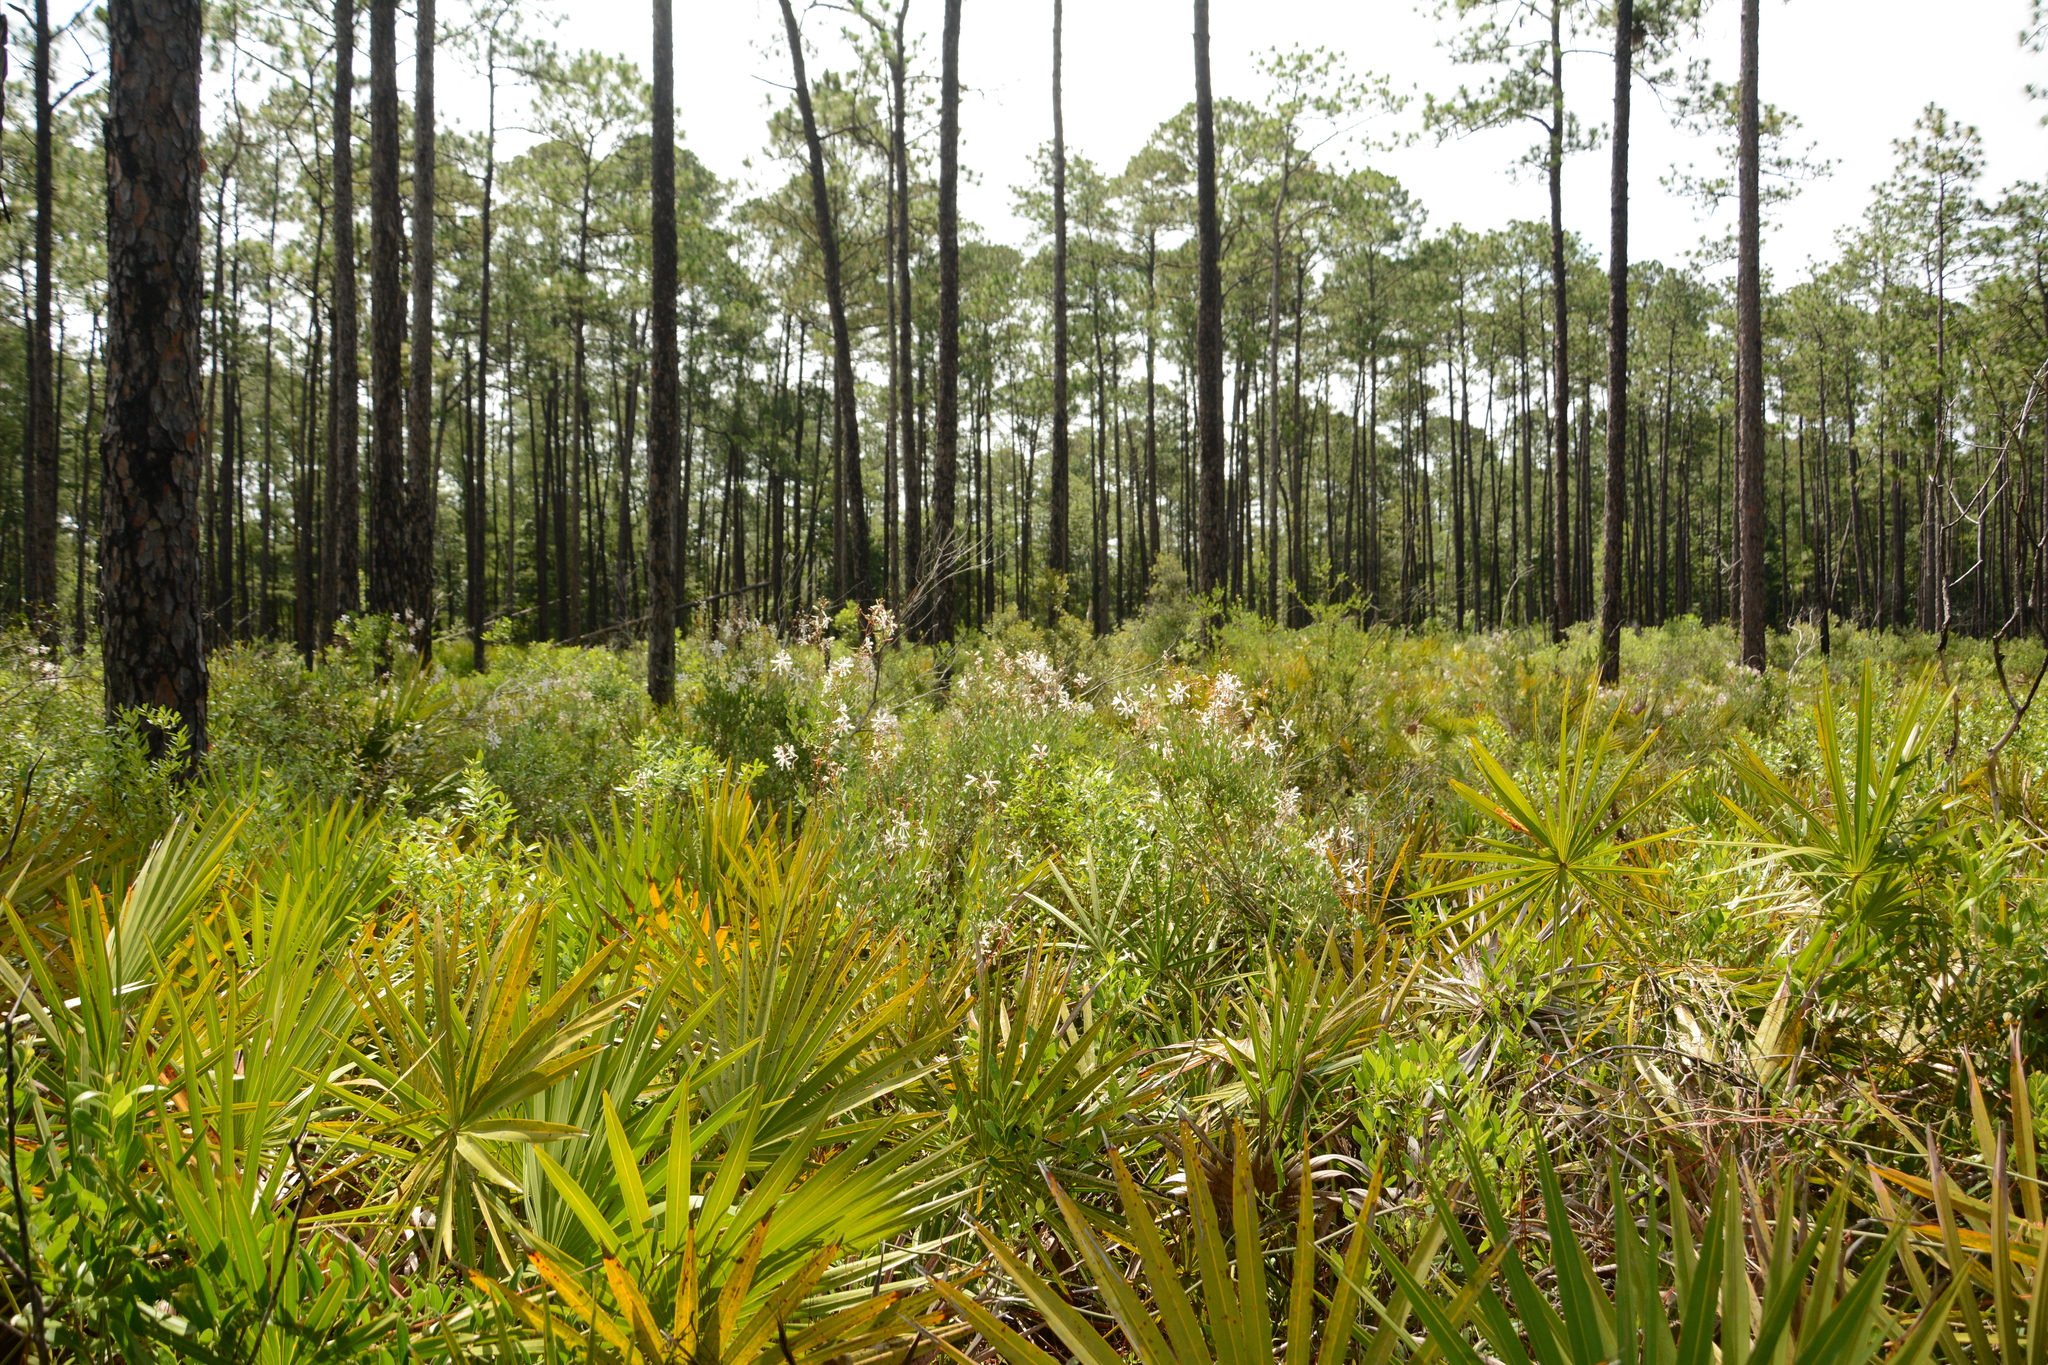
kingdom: Plantae
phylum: Tracheophyta
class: Magnoliopsida
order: Ericales
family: Ericaceae
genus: Bejaria
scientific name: Bejaria racemosa
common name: Tarflower
